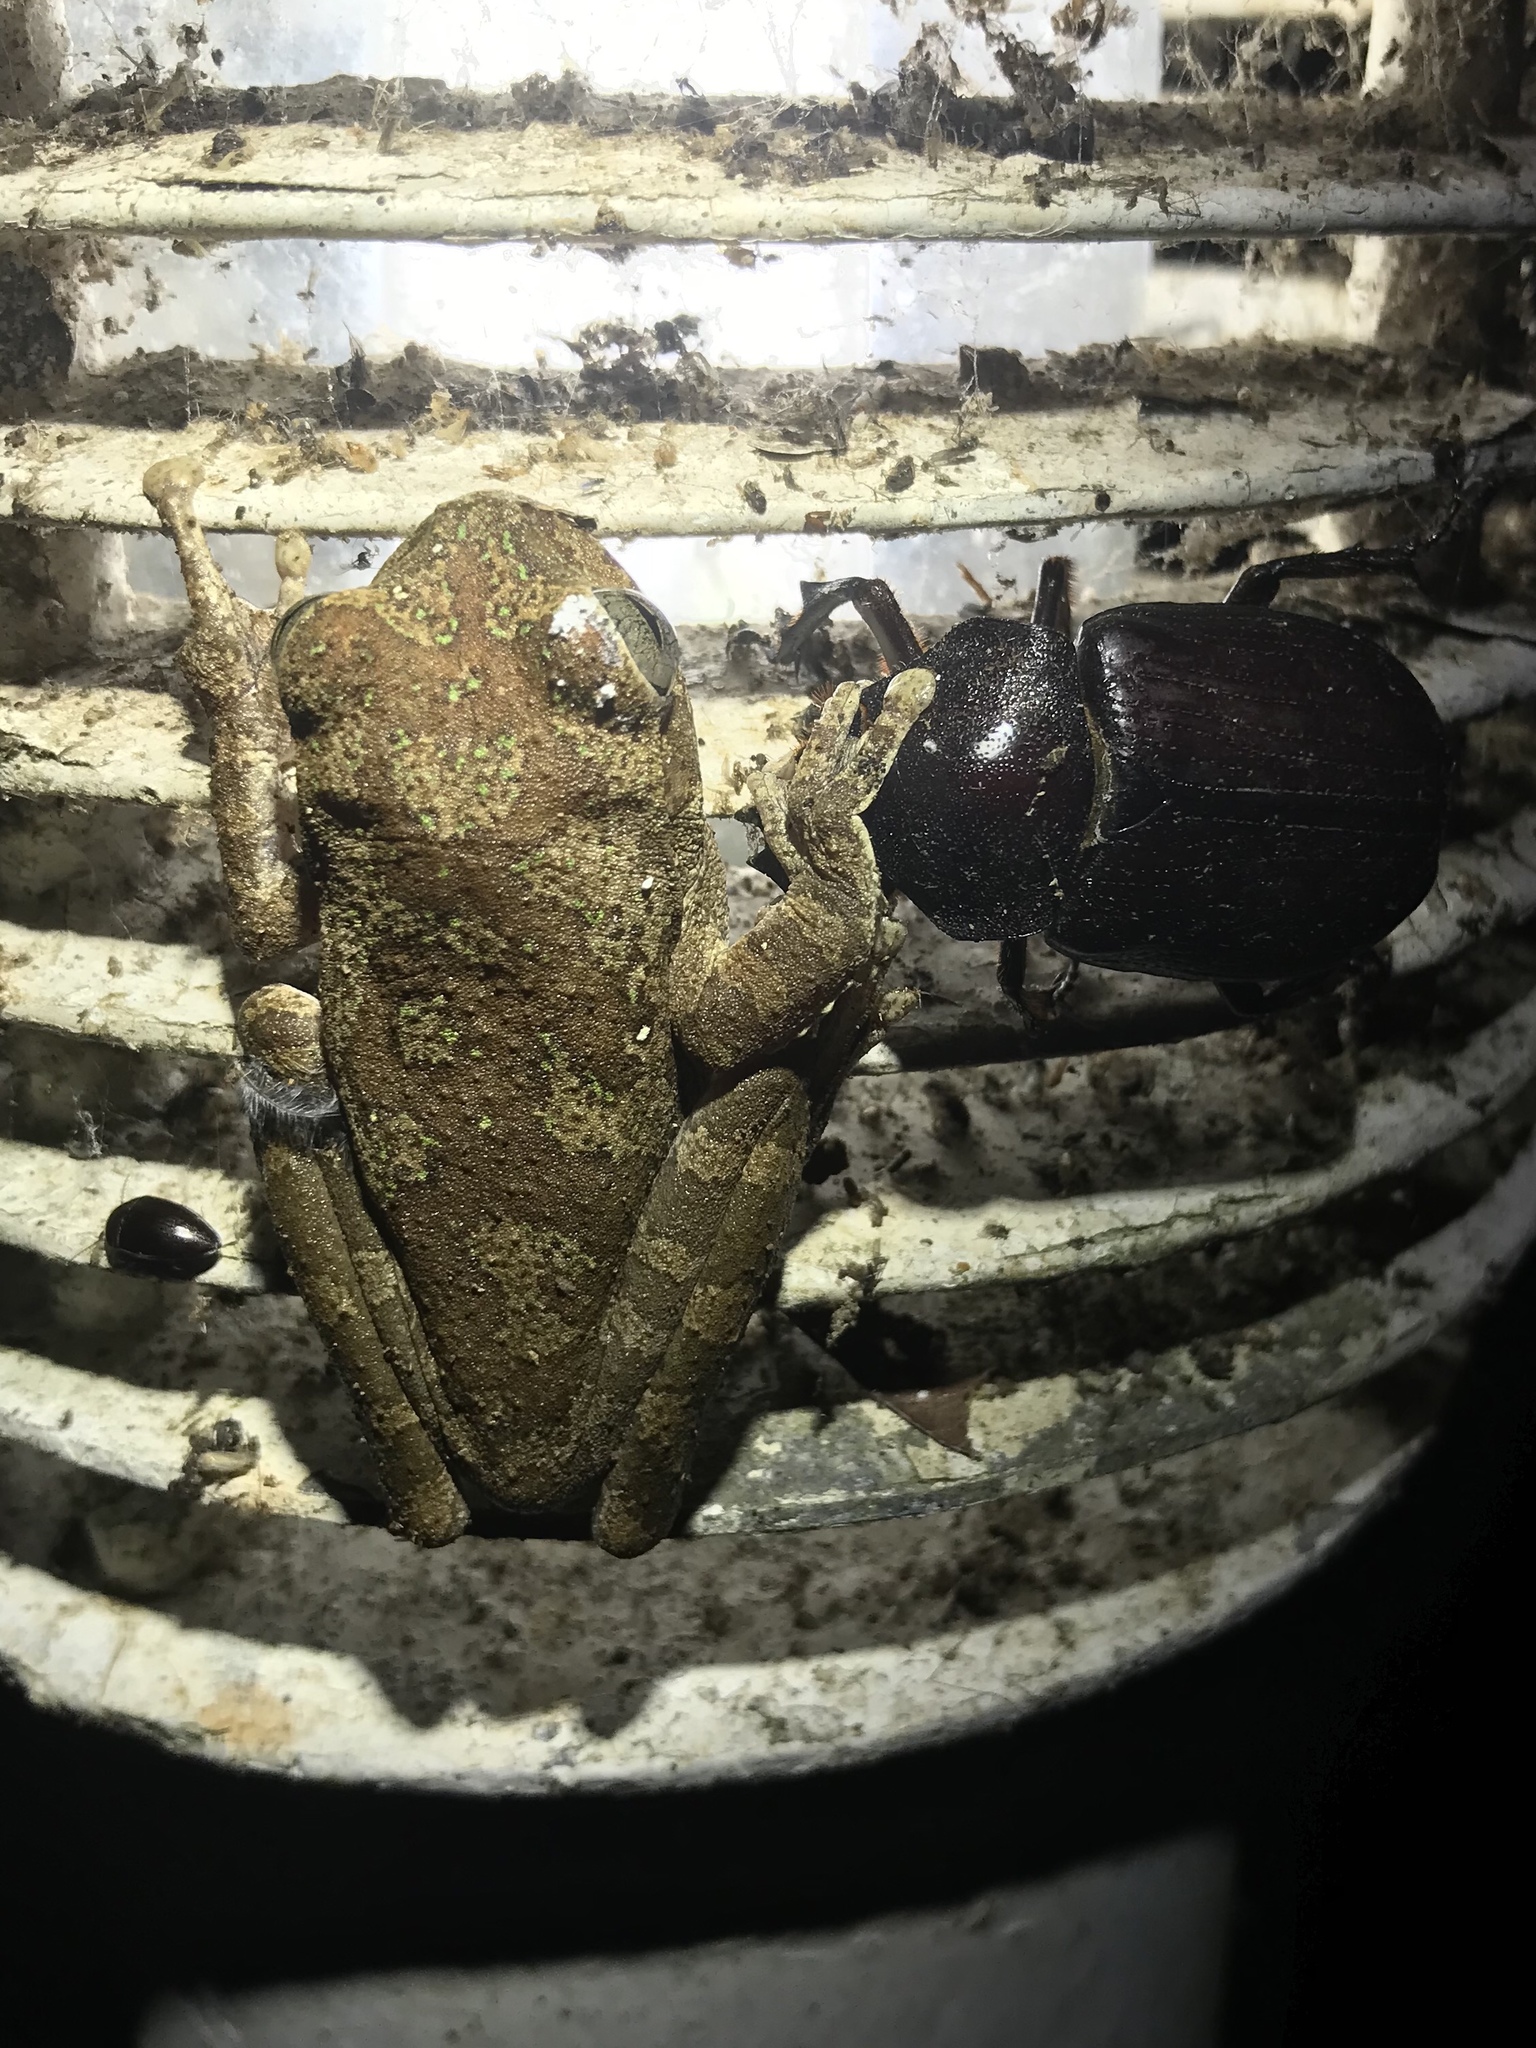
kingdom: Animalia
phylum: Chordata
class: Amphibia
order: Anura
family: Hylidae
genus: Smilisca
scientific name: Smilisca sila
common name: Panama cross-banded treefrog
